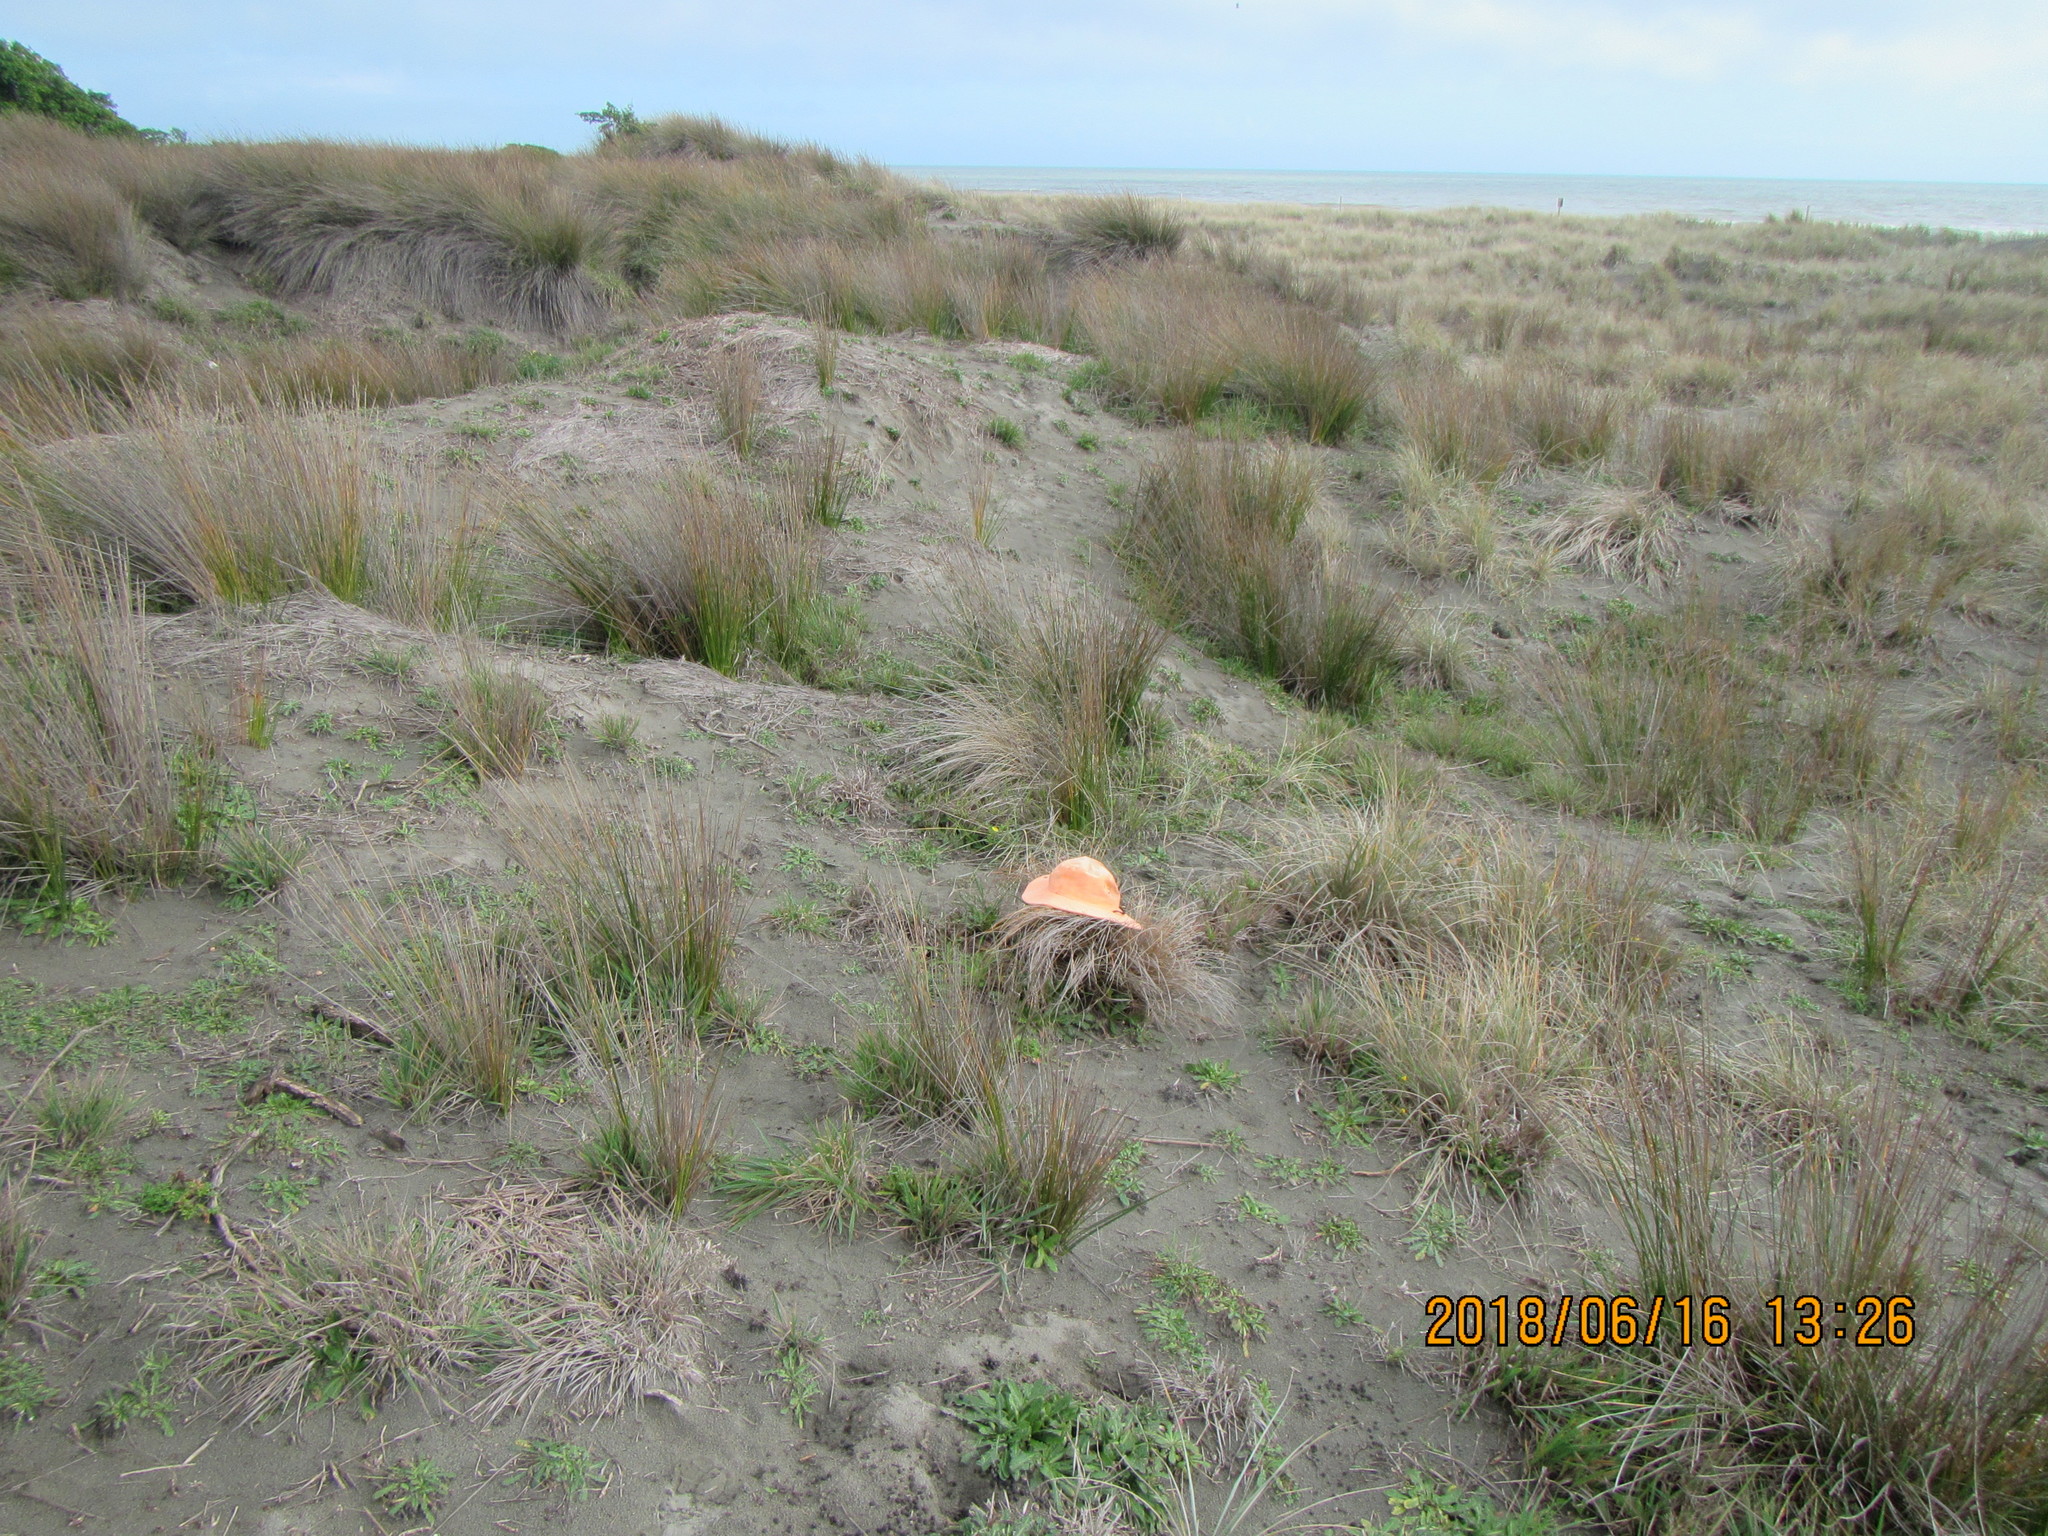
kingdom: Animalia
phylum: Arthropoda
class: Arachnida
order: Araneae
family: Dysderidae
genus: Dysdera
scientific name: Dysdera crocata
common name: Woodlouse spider
